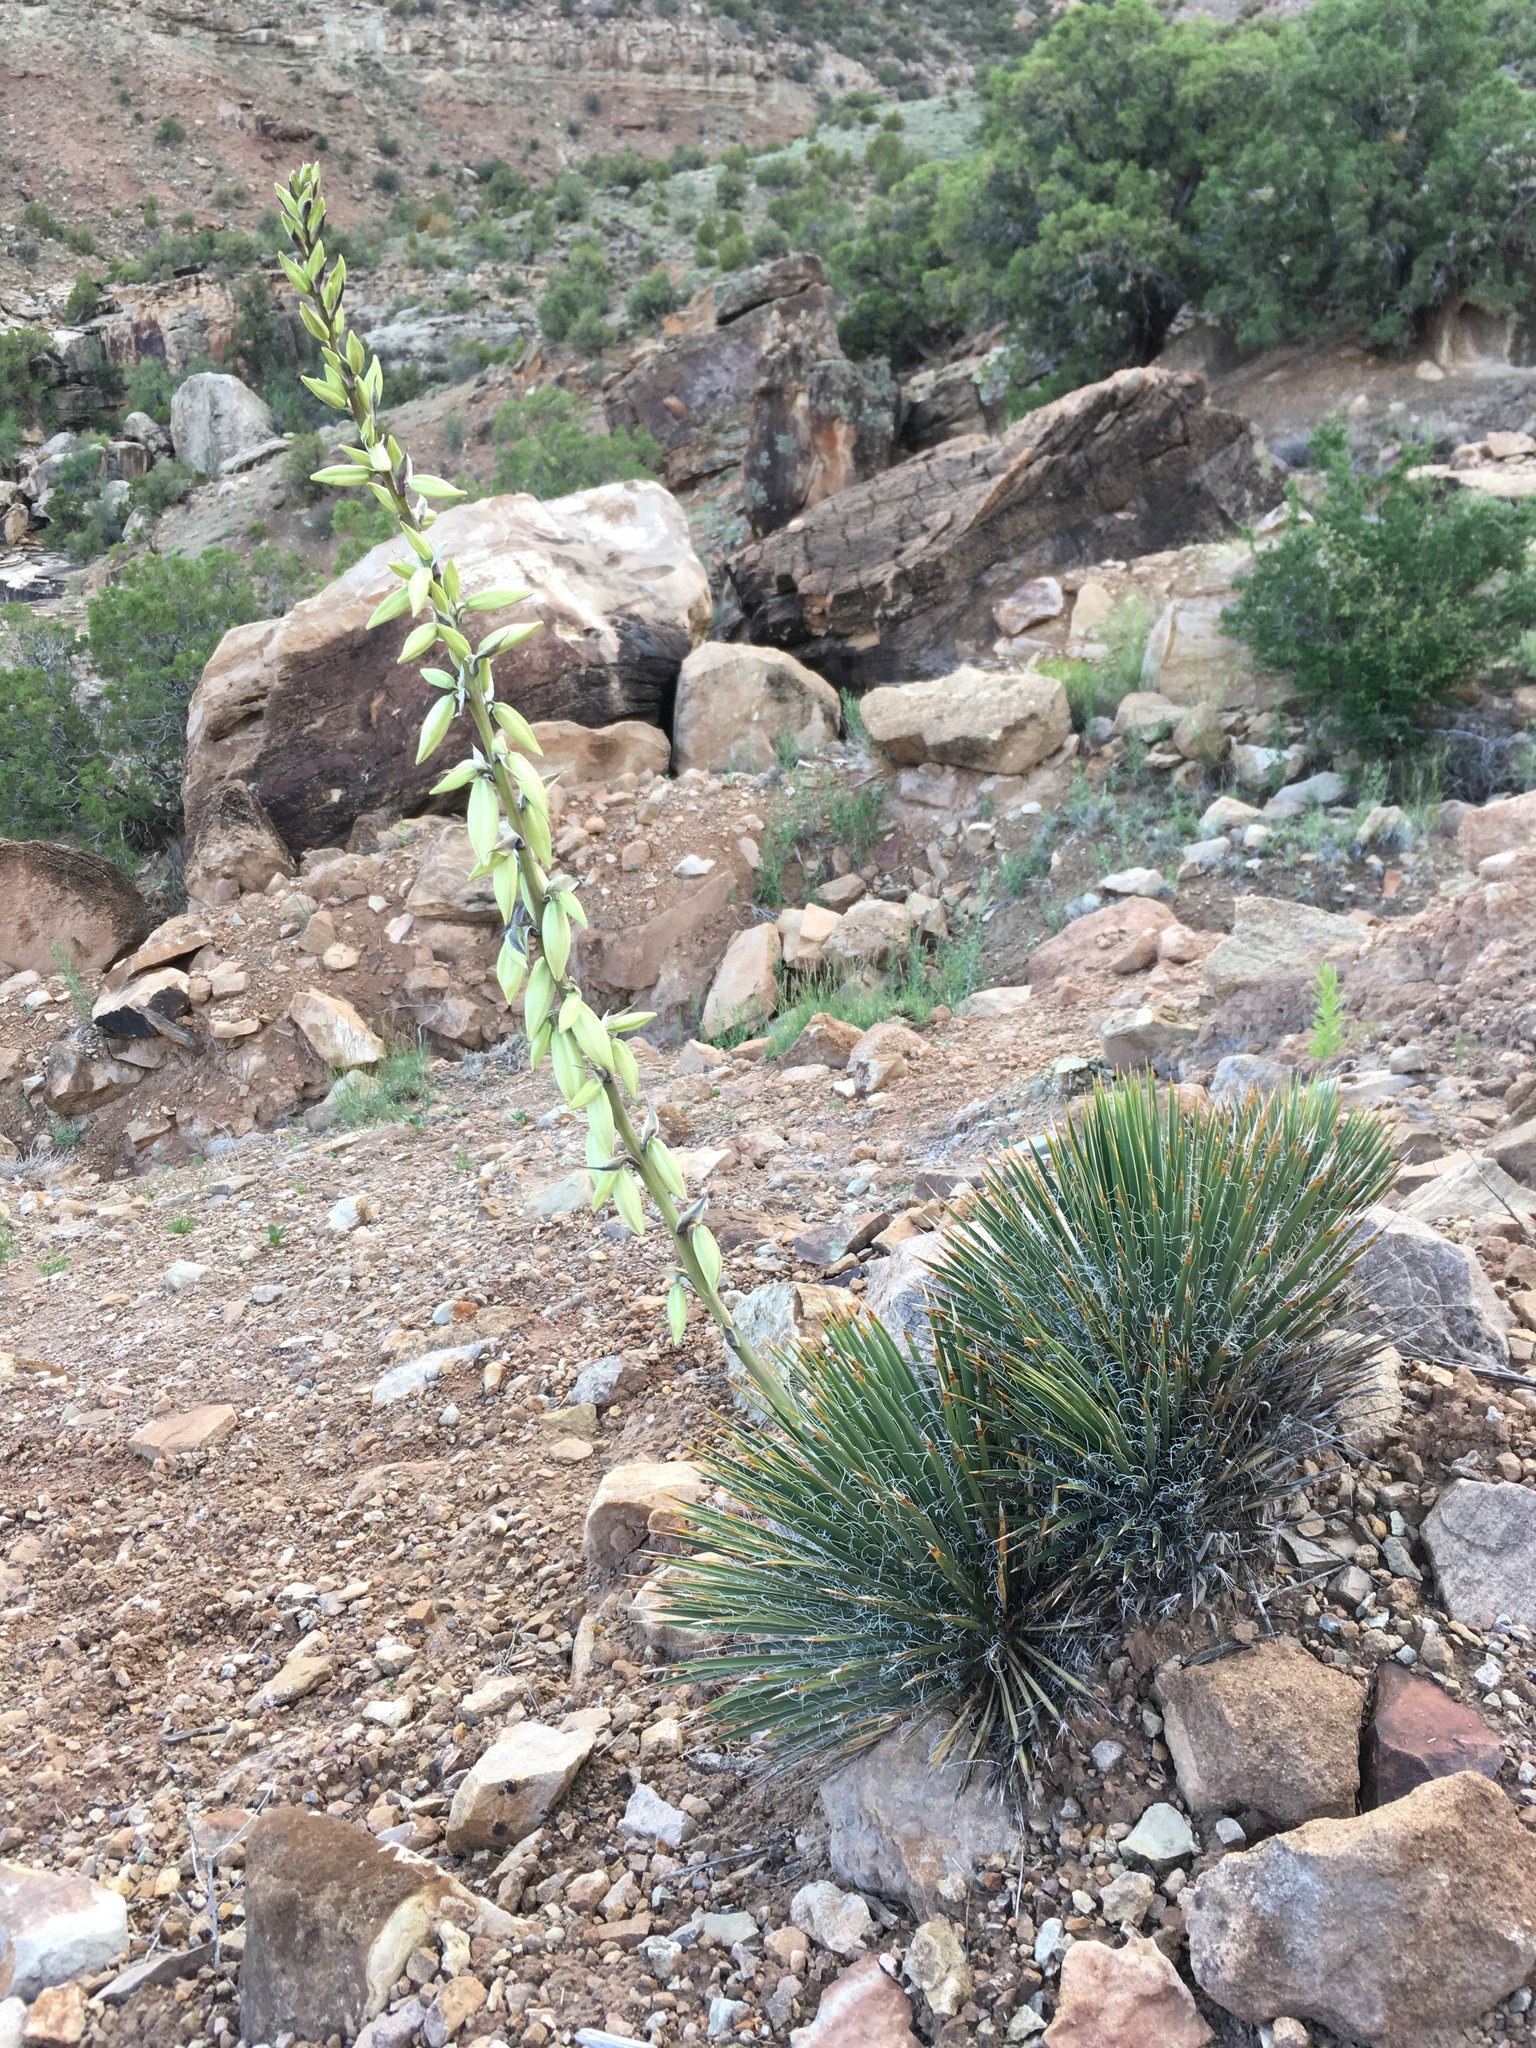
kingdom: Plantae
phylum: Tracheophyta
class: Liliopsida
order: Asparagales
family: Asparagaceae
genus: Yucca
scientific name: Yucca harrimaniae
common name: Harriman's yucca
